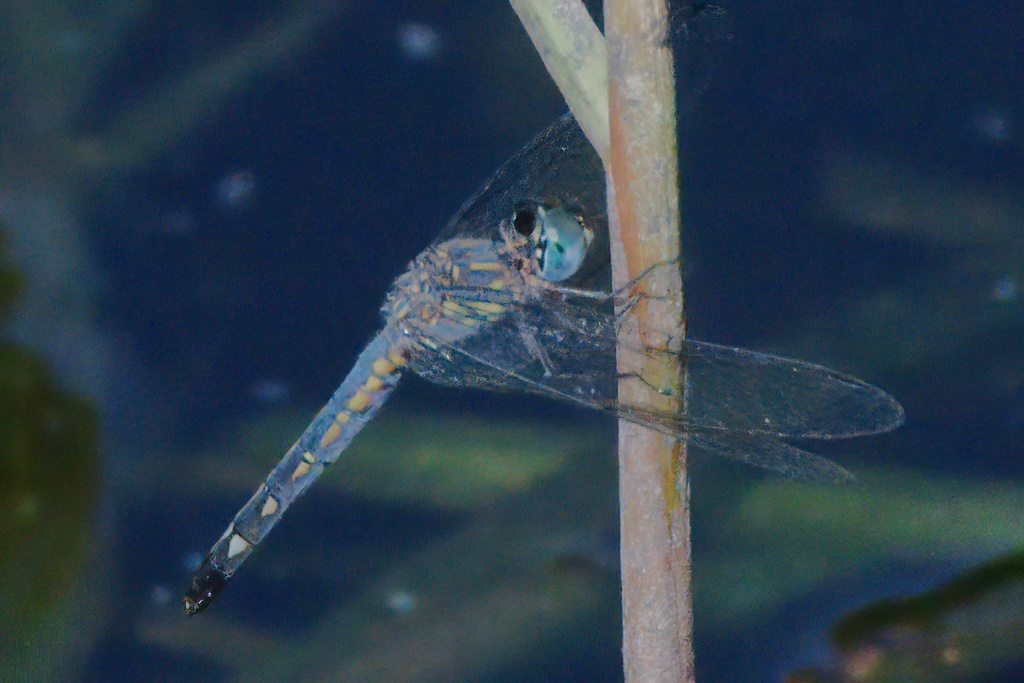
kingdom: Animalia
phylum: Arthropoda
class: Insecta
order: Odonata
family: Libellulidae
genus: Micrathyria
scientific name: Micrathyria aequalis
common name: Spot-tailed dasher
